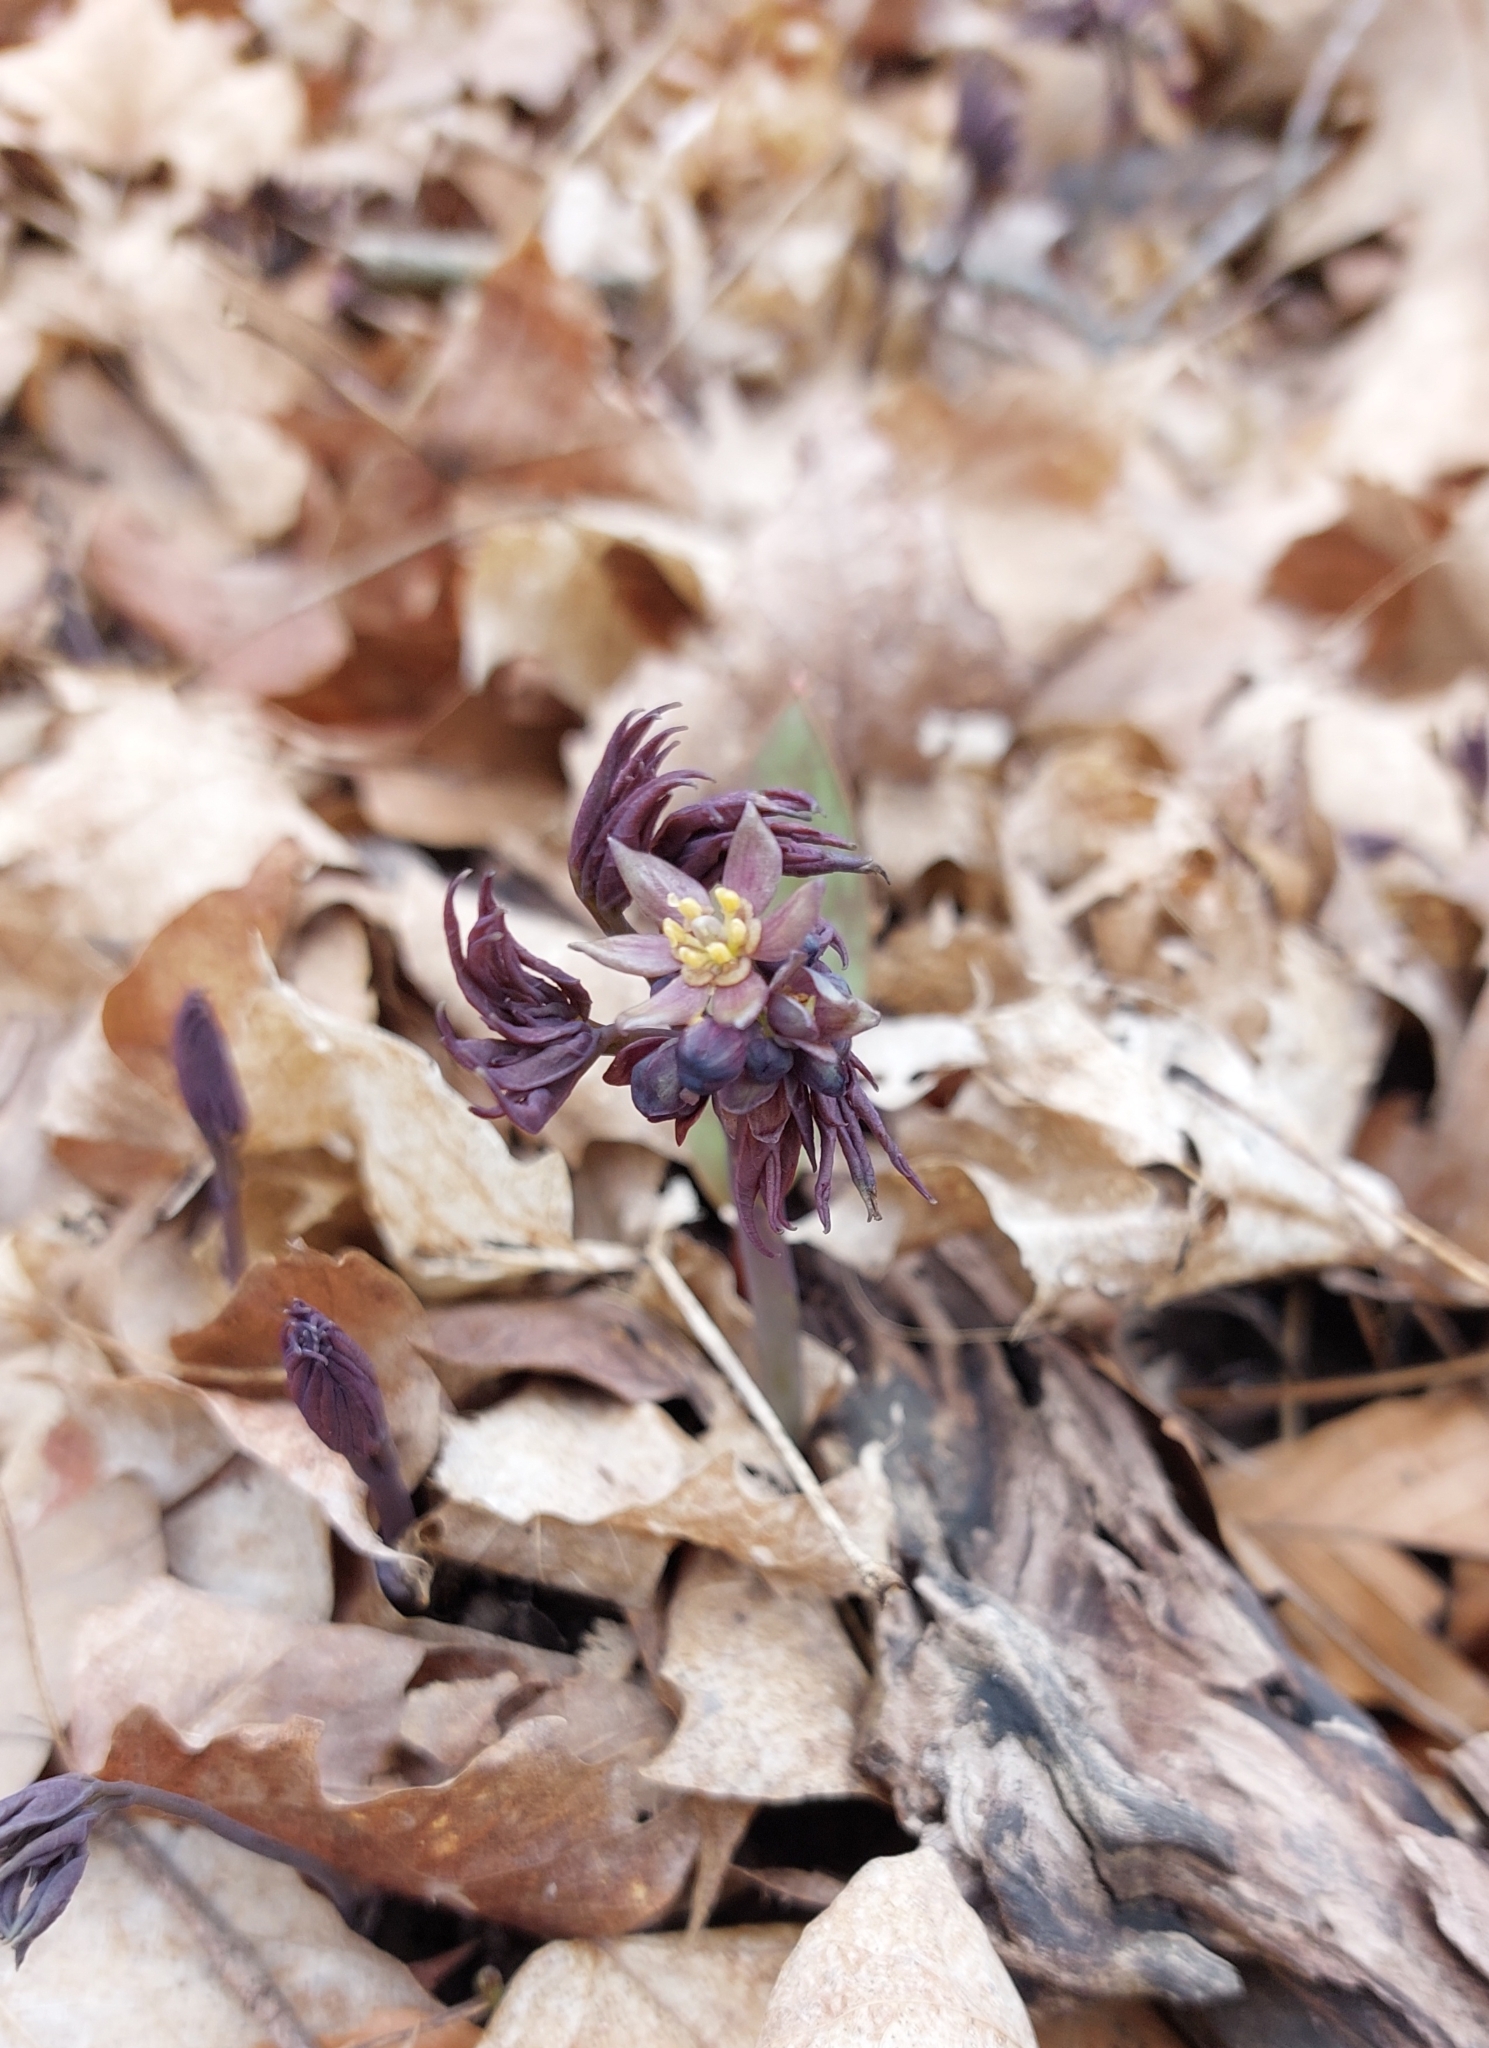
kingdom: Plantae
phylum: Tracheophyta
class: Magnoliopsida
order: Ranunculales
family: Berberidaceae
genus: Caulophyllum
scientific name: Caulophyllum giganteum
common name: Blue cohosh
